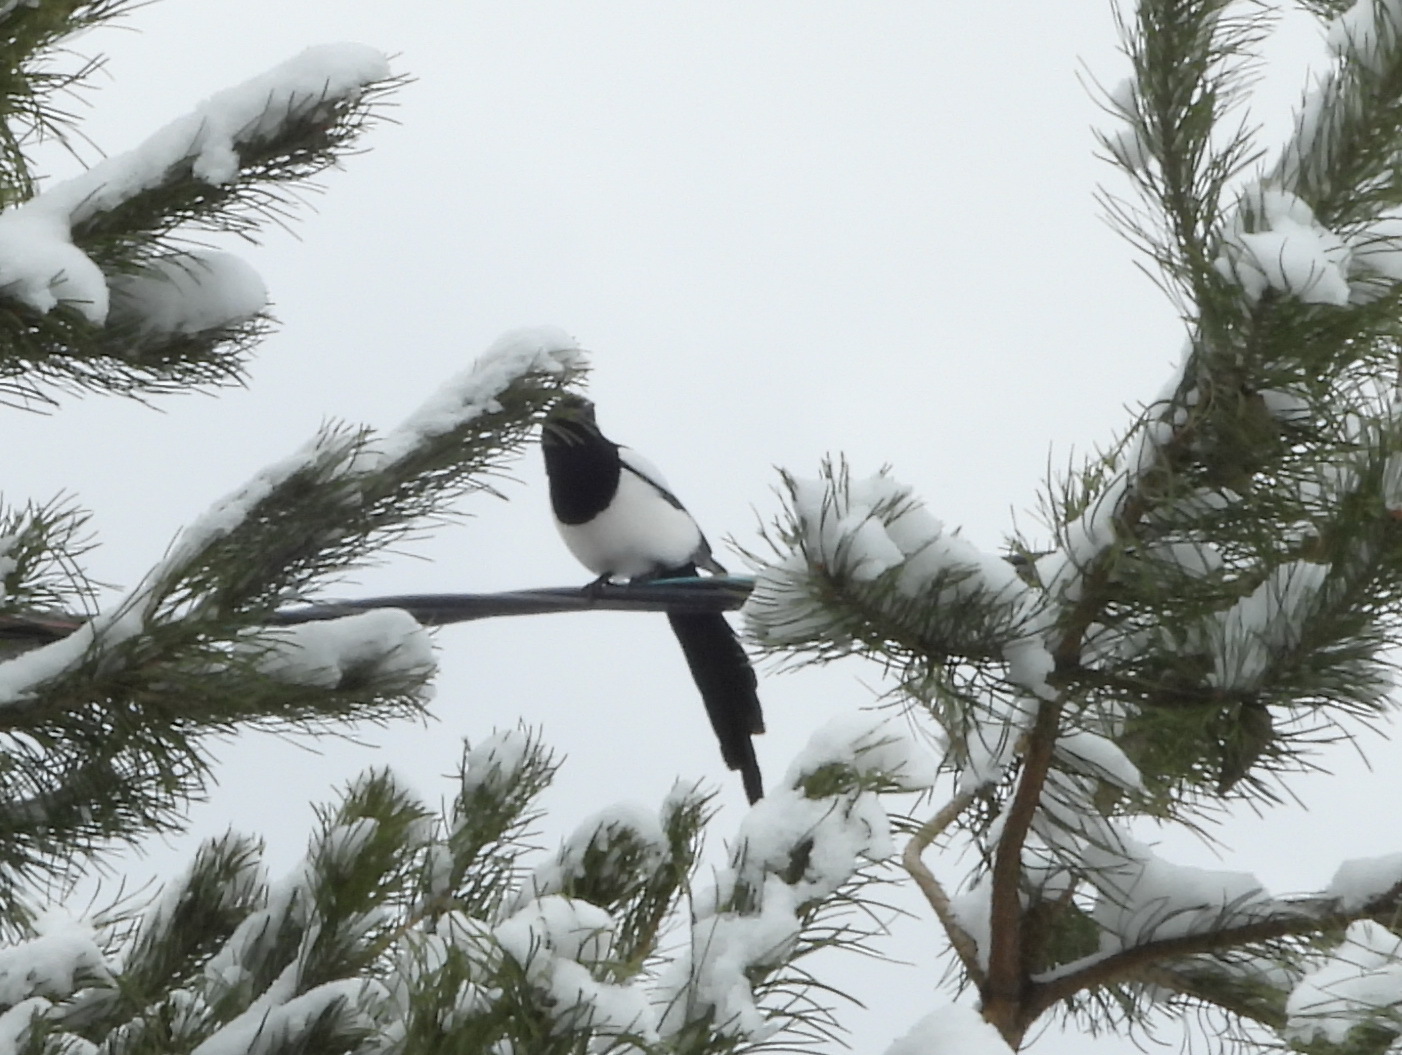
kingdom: Animalia
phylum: Chordata
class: Aves
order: Passeriformes
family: Corvidae
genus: Pica
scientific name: Pica pica
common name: Eurasian magpie
